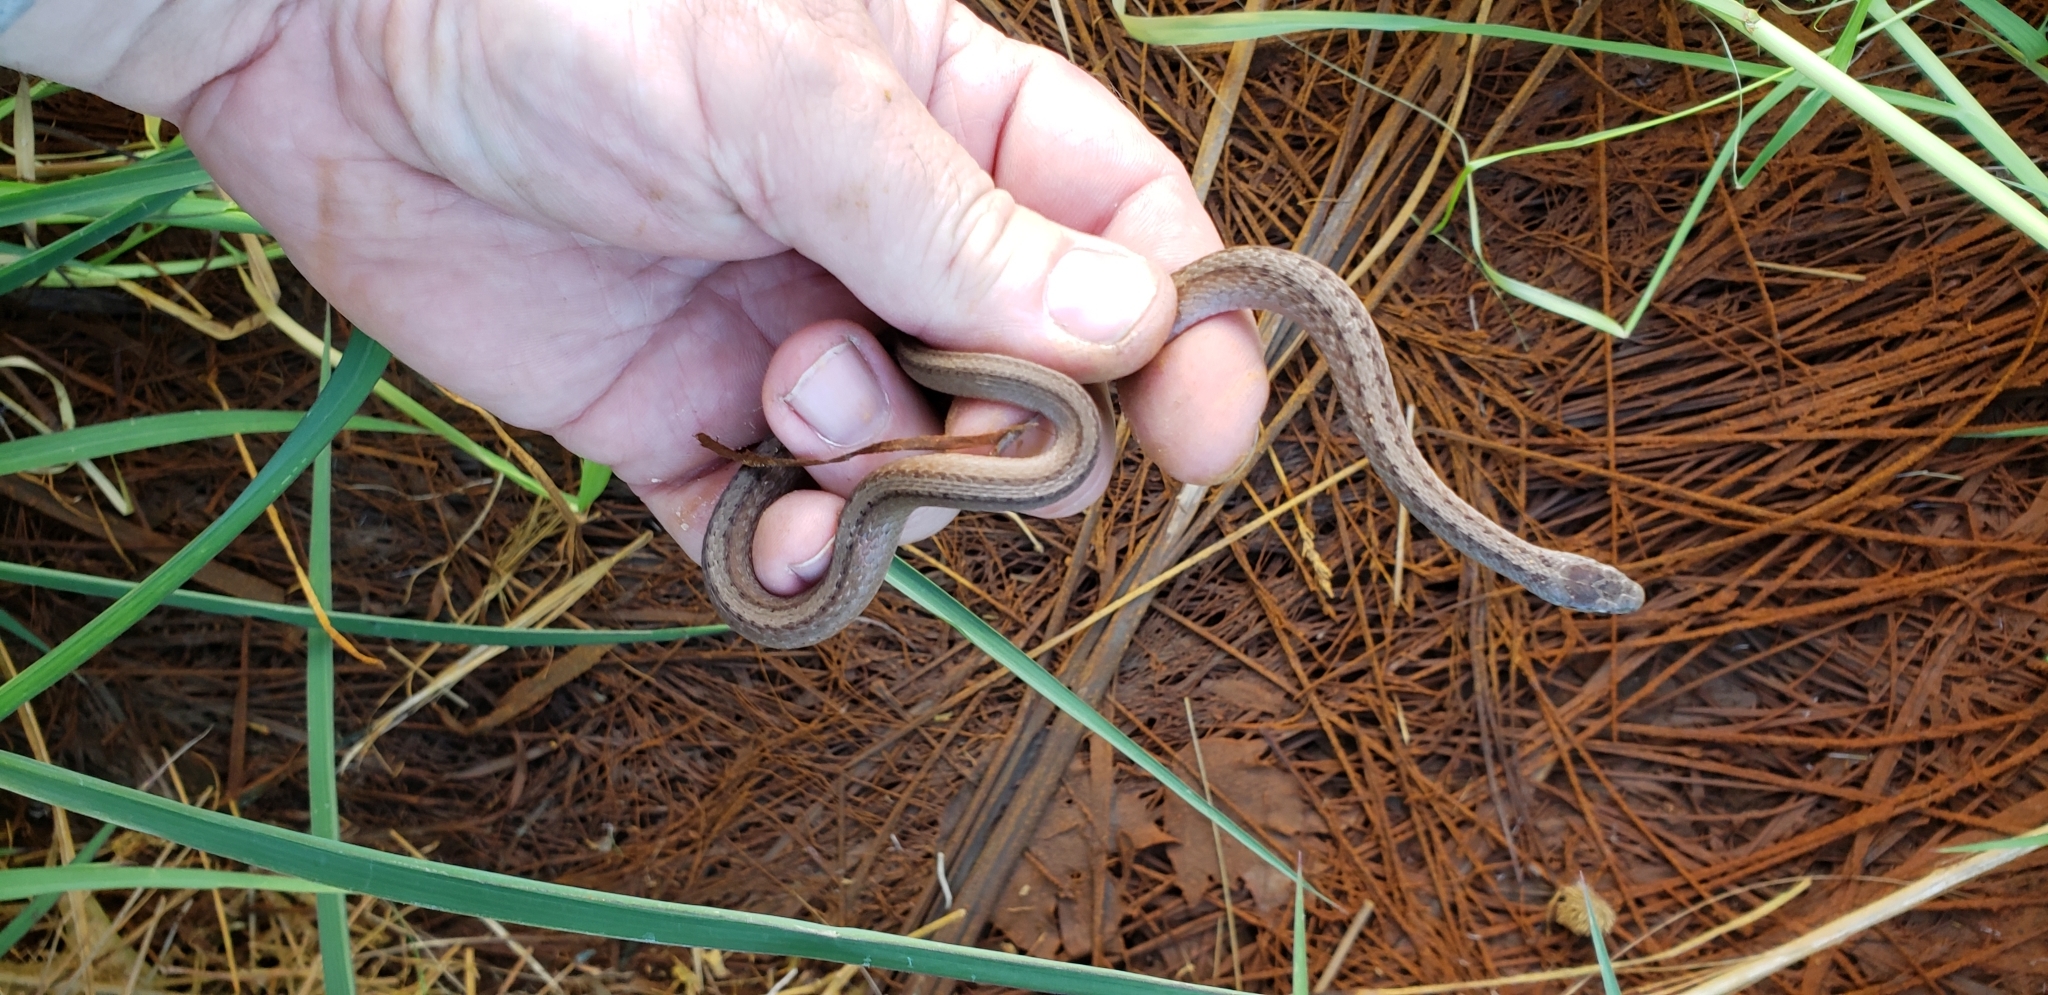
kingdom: Animalia
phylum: Chordata
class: Squamata
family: Colubridae
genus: Storeria
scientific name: Storeria dekayi
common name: (dekay’s) brown snake
